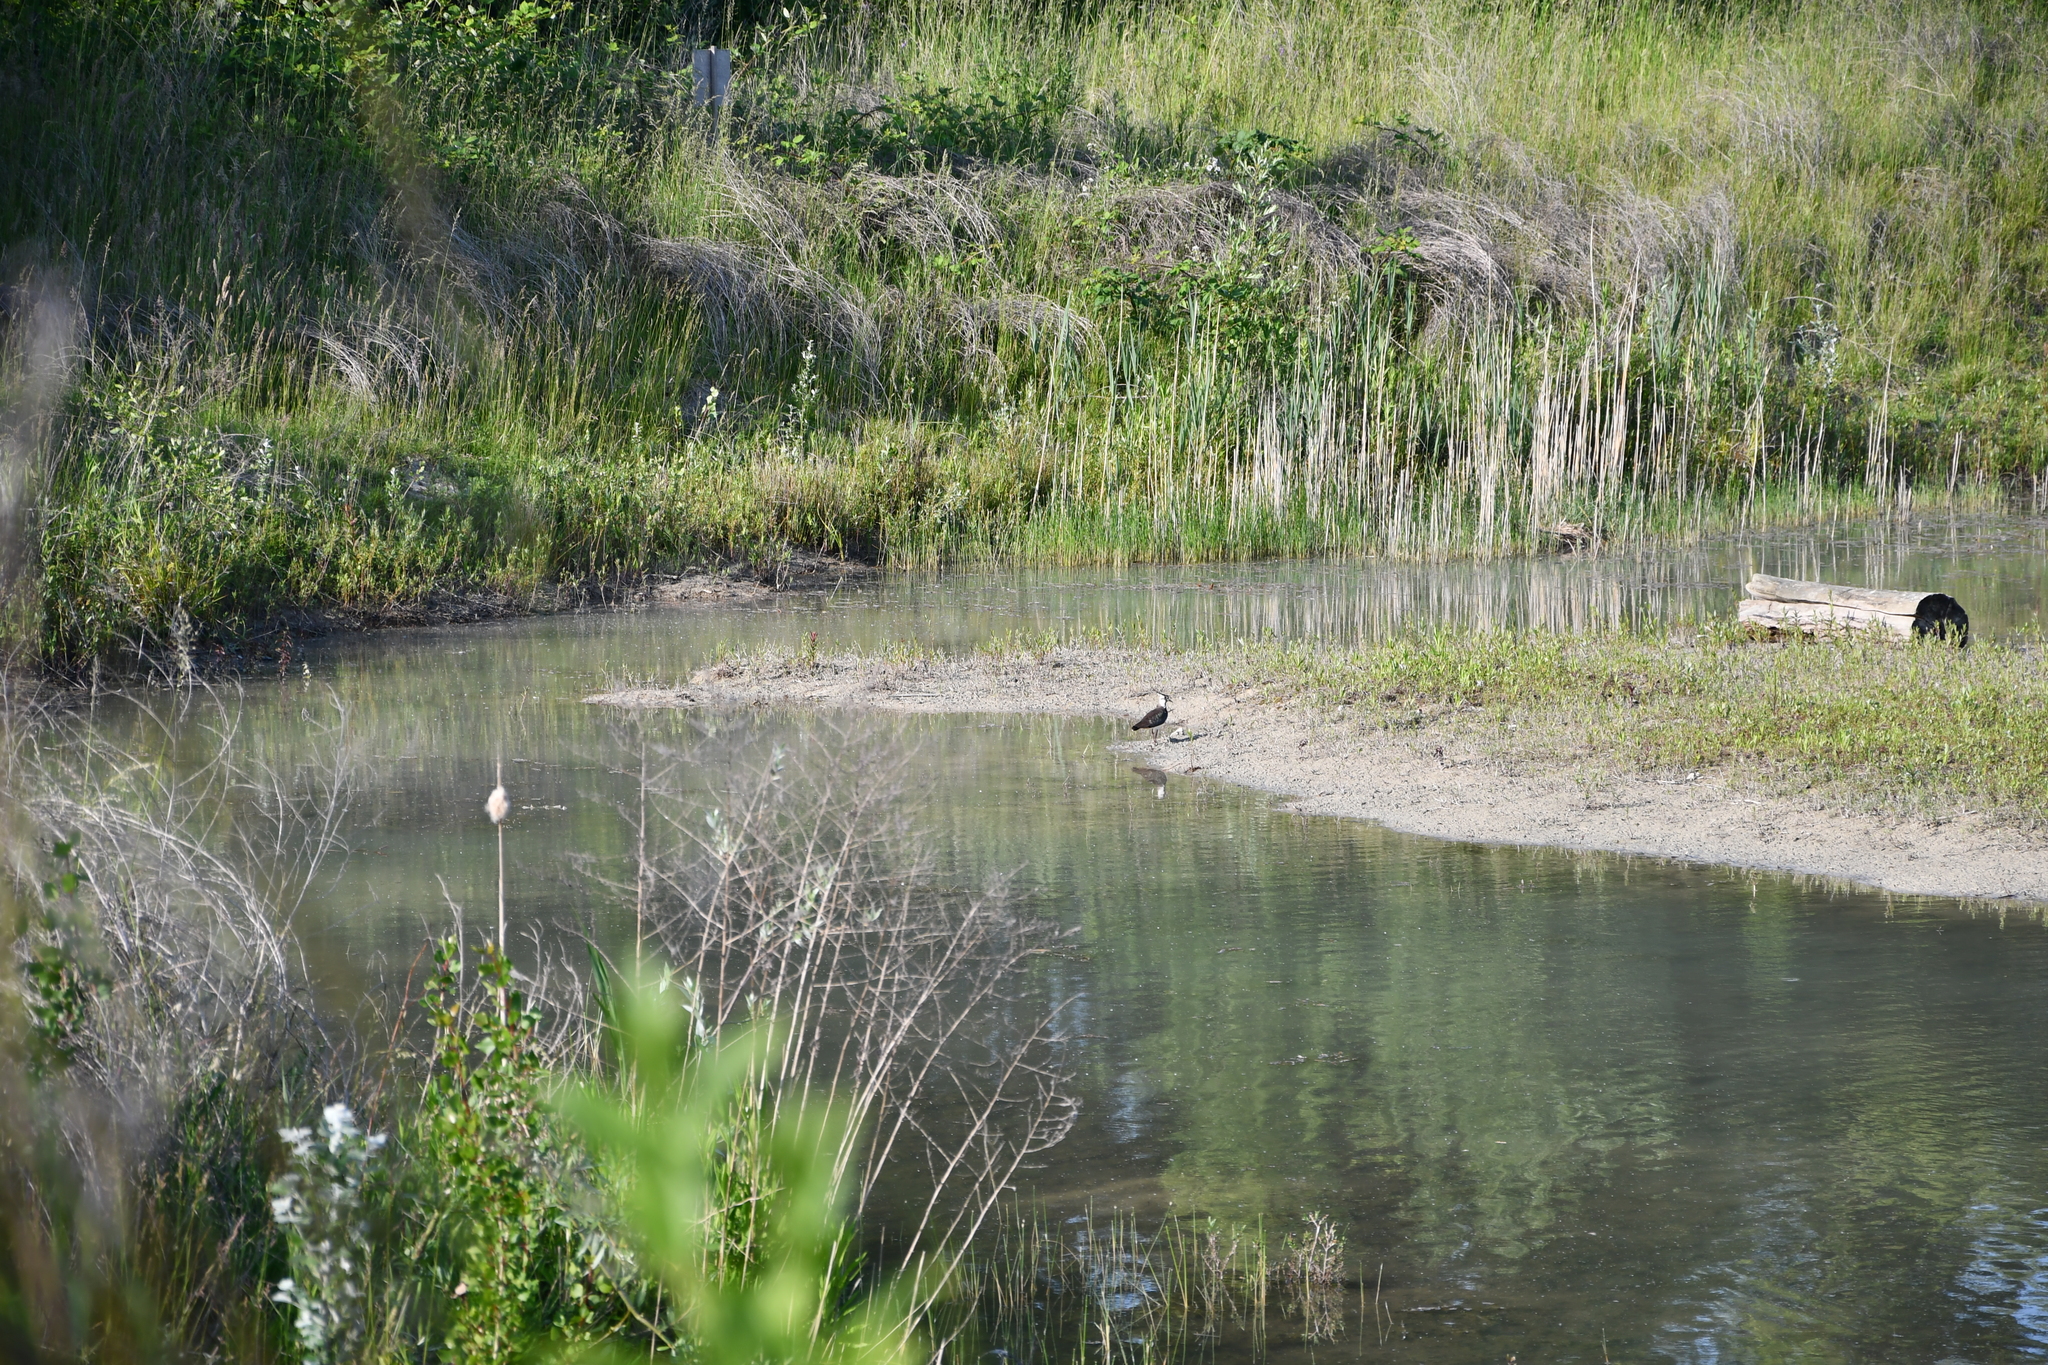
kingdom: Animalia
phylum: Chordata
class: Aves
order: Charadriiformes
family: Charadriidae
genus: Vanellus
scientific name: Vanellus vanellus
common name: Northern lapwing
